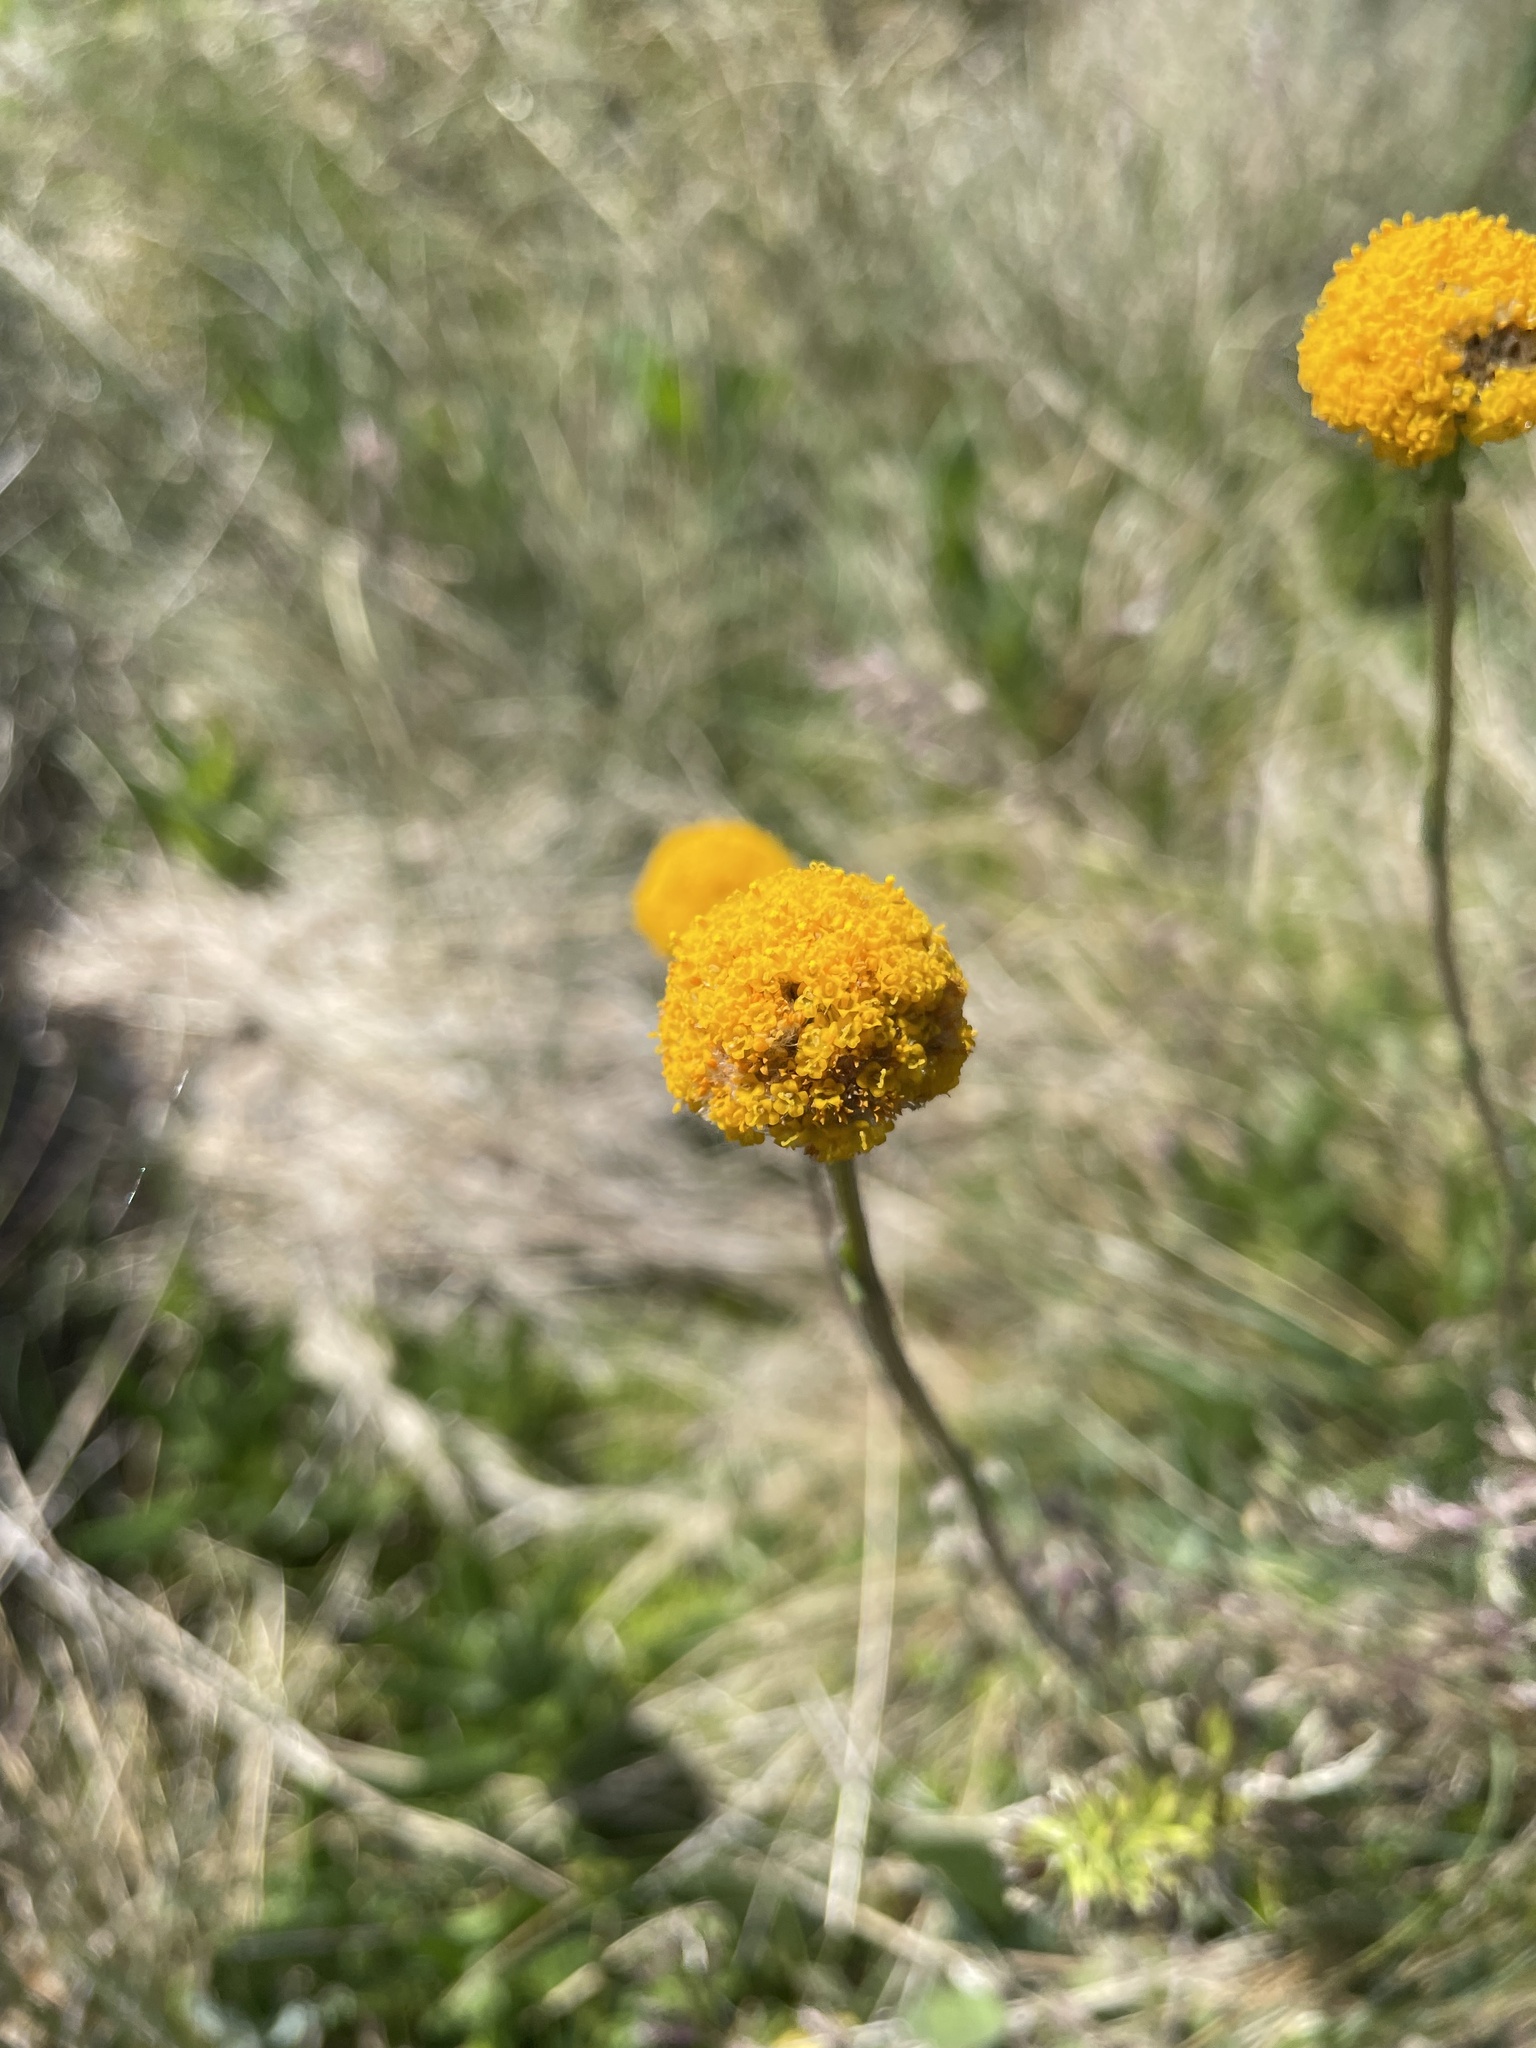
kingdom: Plantae
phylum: Tracheophyta
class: Magnoliopsida
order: Asterales
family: Asteraceae
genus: Craspedia
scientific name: Craspedia
